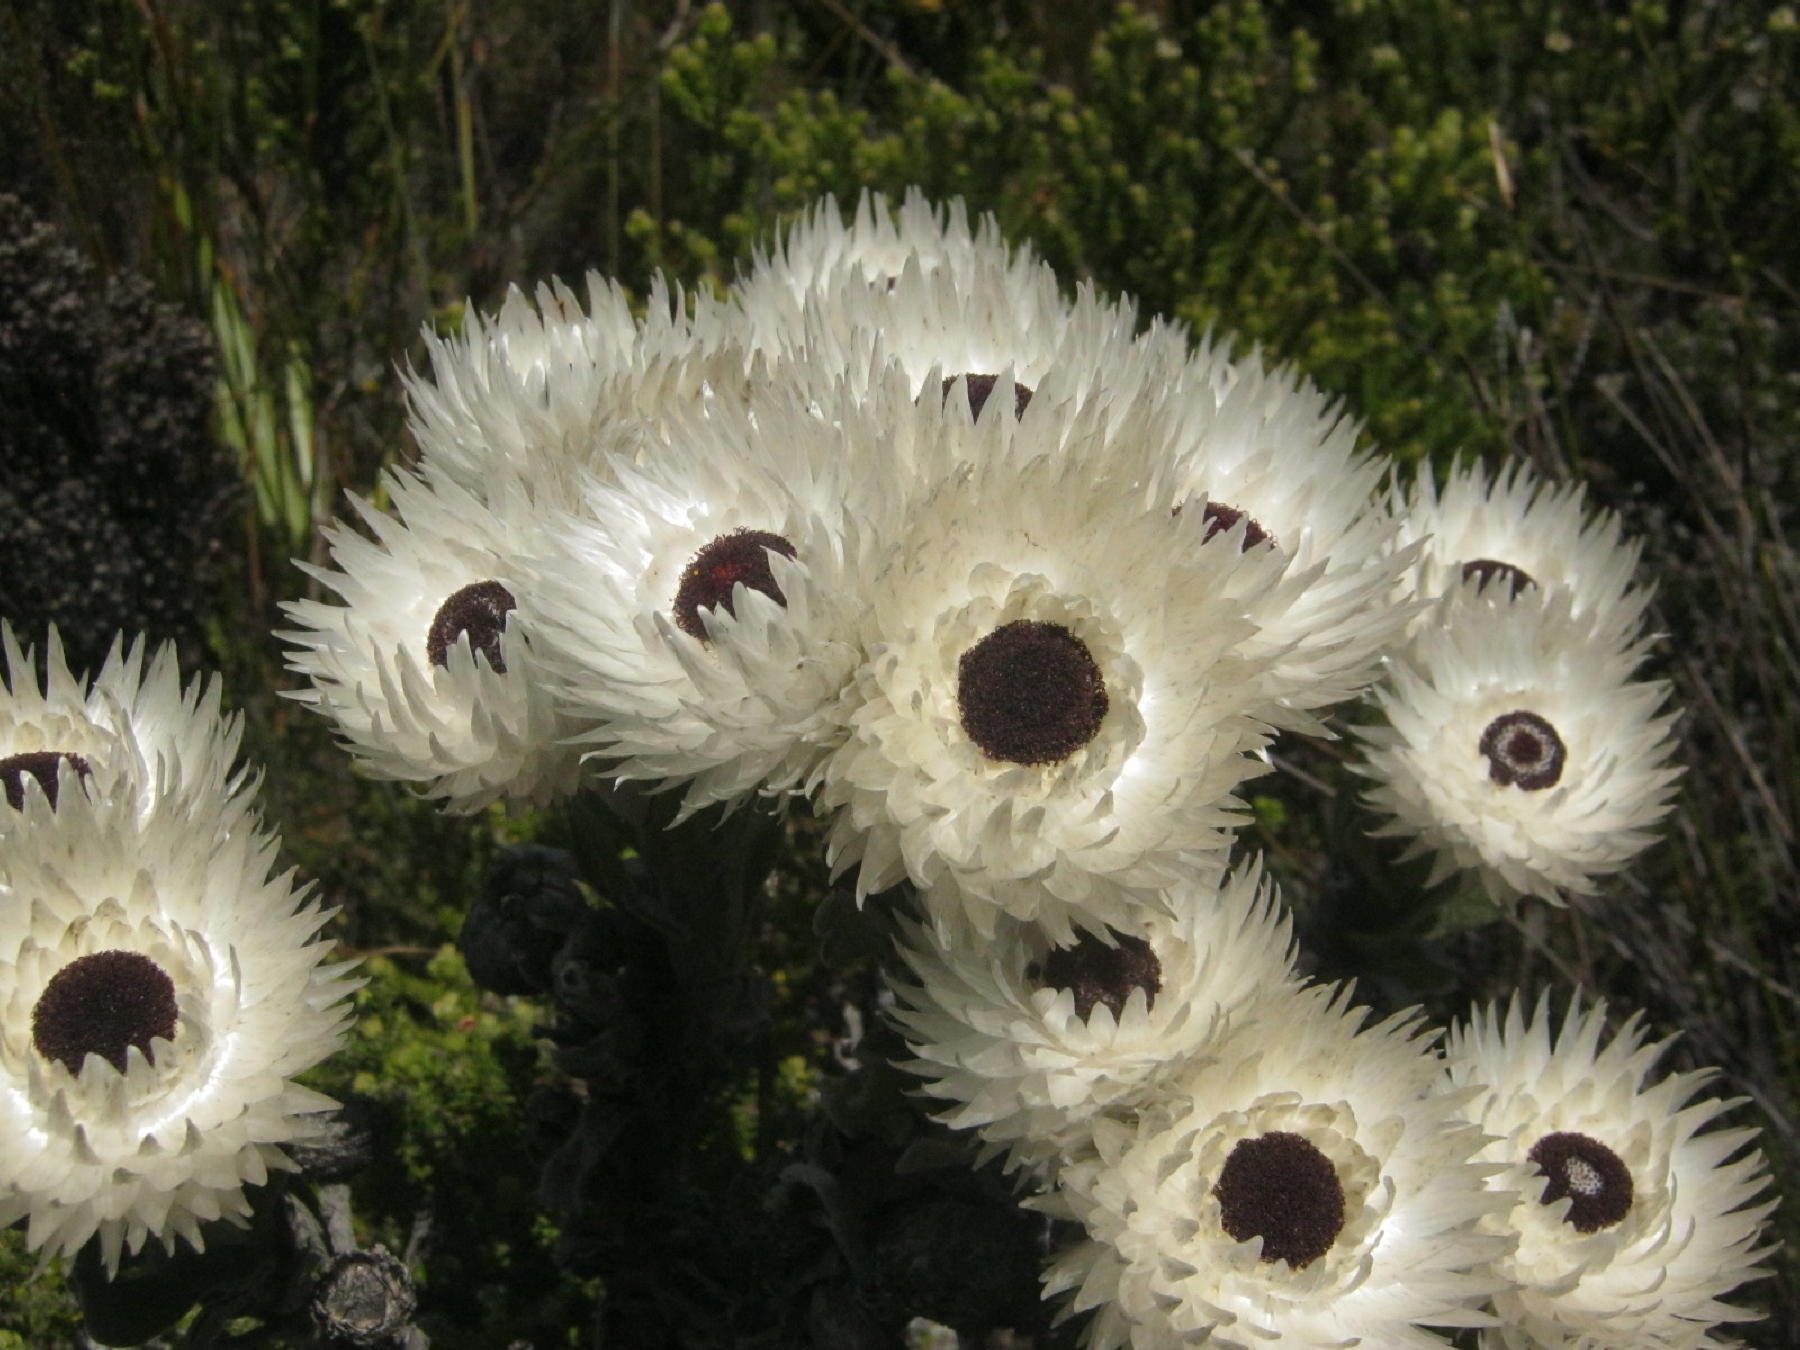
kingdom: Plantae
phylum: Tracheophyta
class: Magnoliopsida
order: Asterales
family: Asteraceae
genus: Syncarpha
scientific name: Syncarpha vestita
